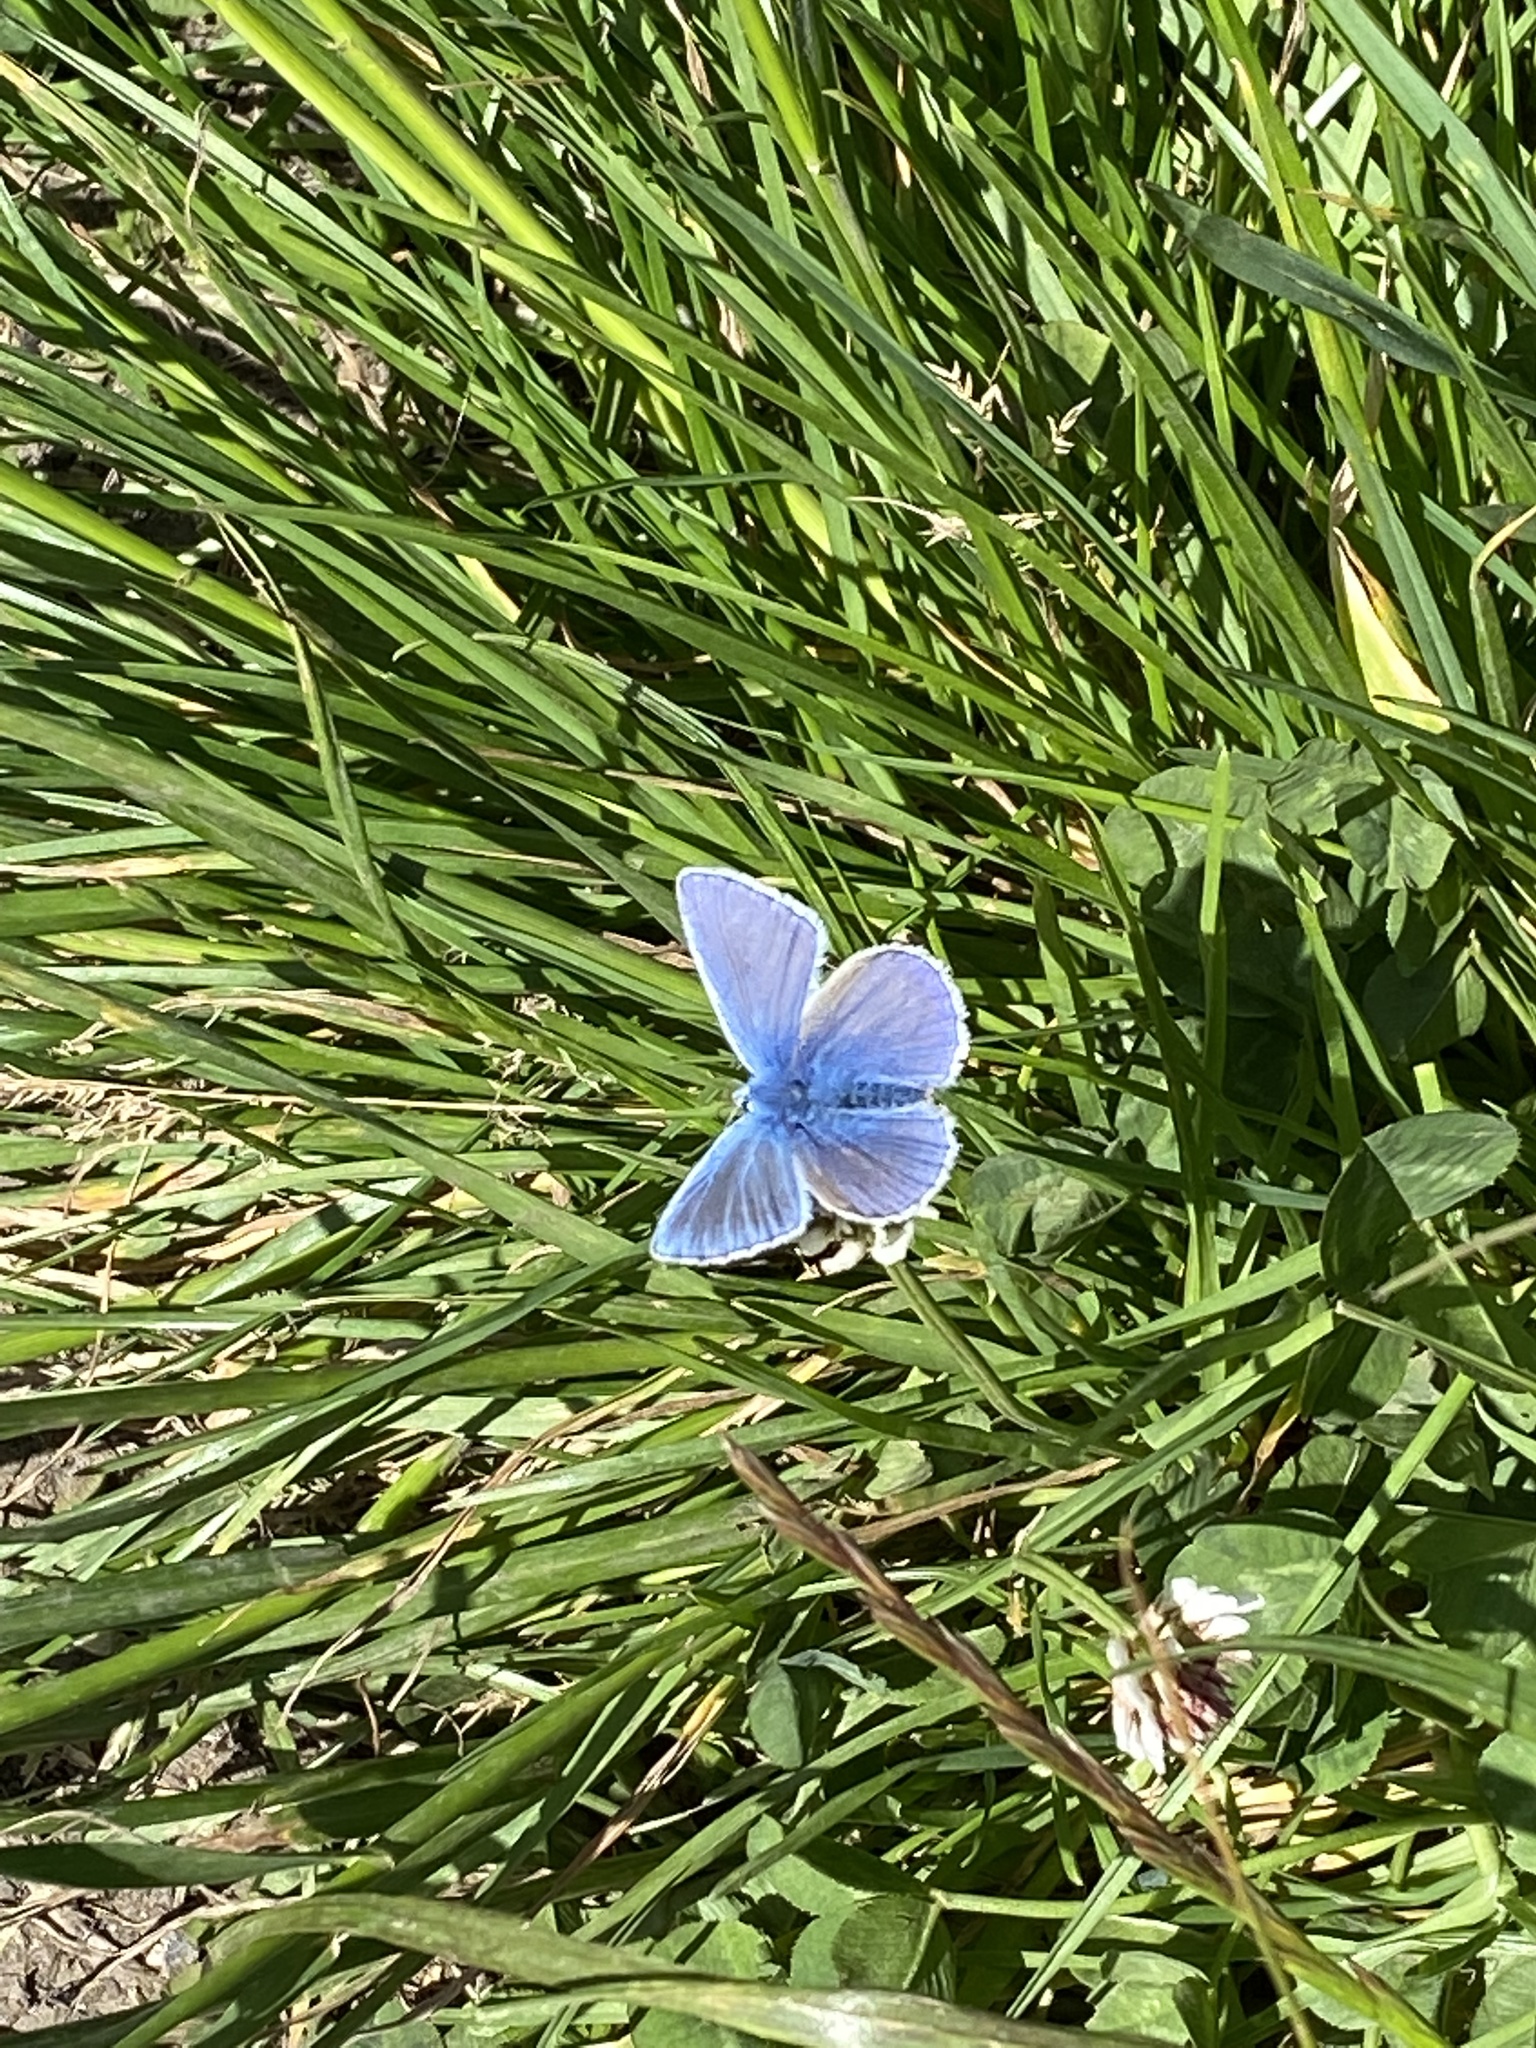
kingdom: Animalia
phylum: Arthropoda
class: Insecta
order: Lepidoptera
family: Lycaenidae
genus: Polyommatus
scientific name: Polyommatus icarus
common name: Common blue
